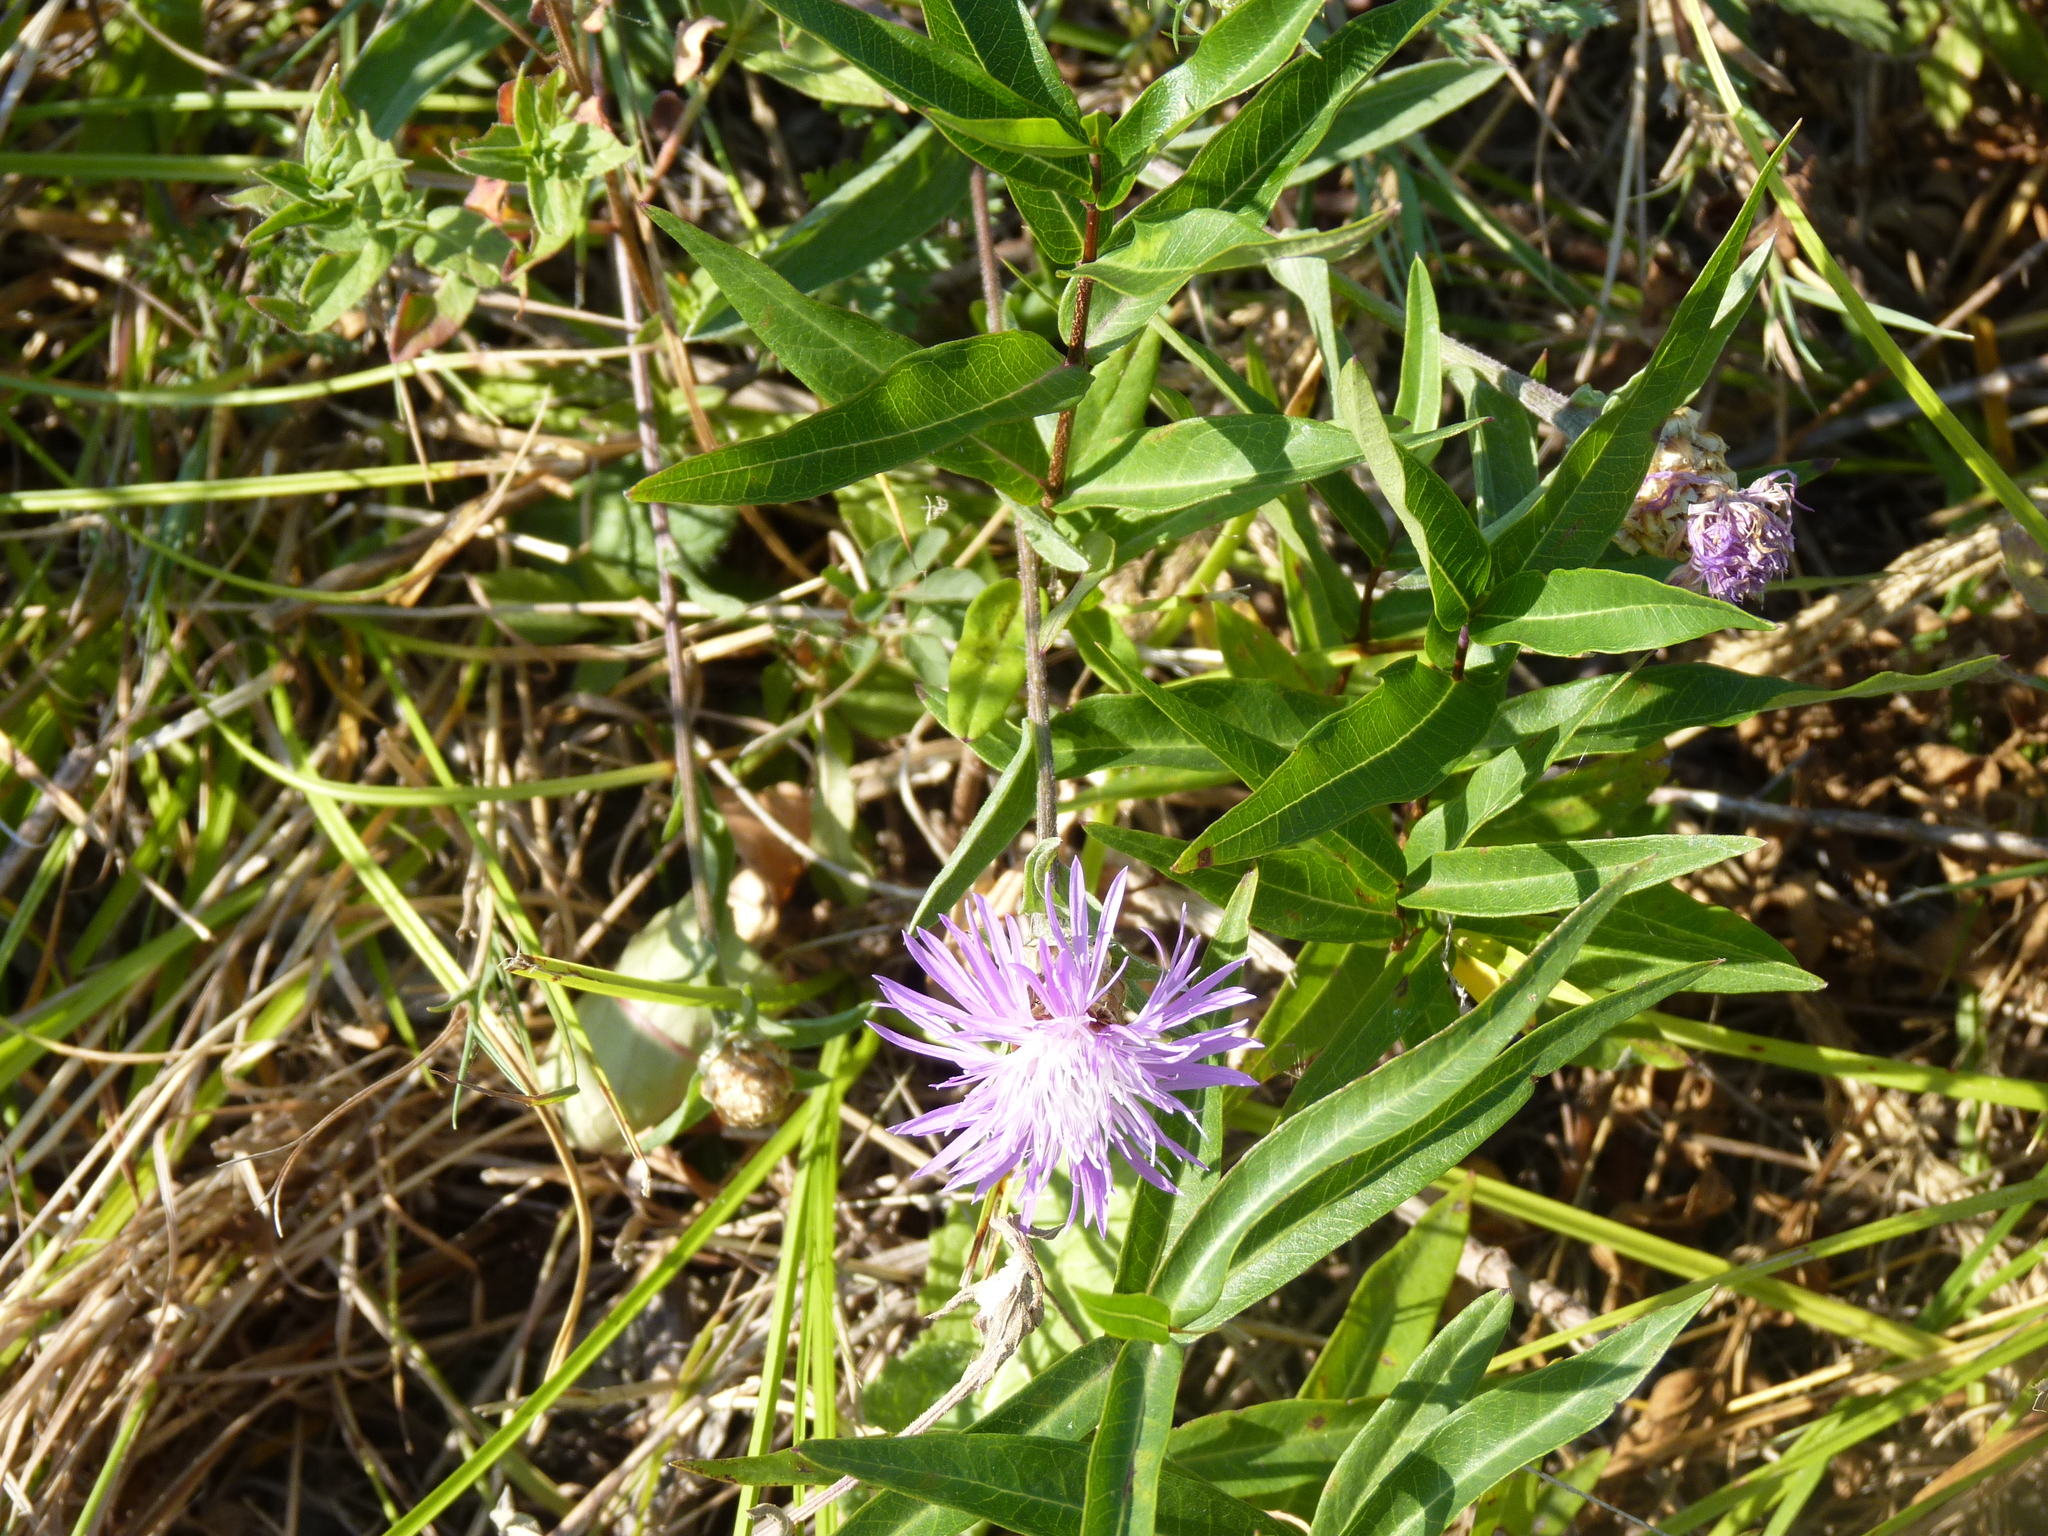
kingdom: Plantae
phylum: Tracheophyta
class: Magnoliopsida
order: Asterales
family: Asteraceae
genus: Centaurea
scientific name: Centaurea jacea
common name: Brown knapweed
